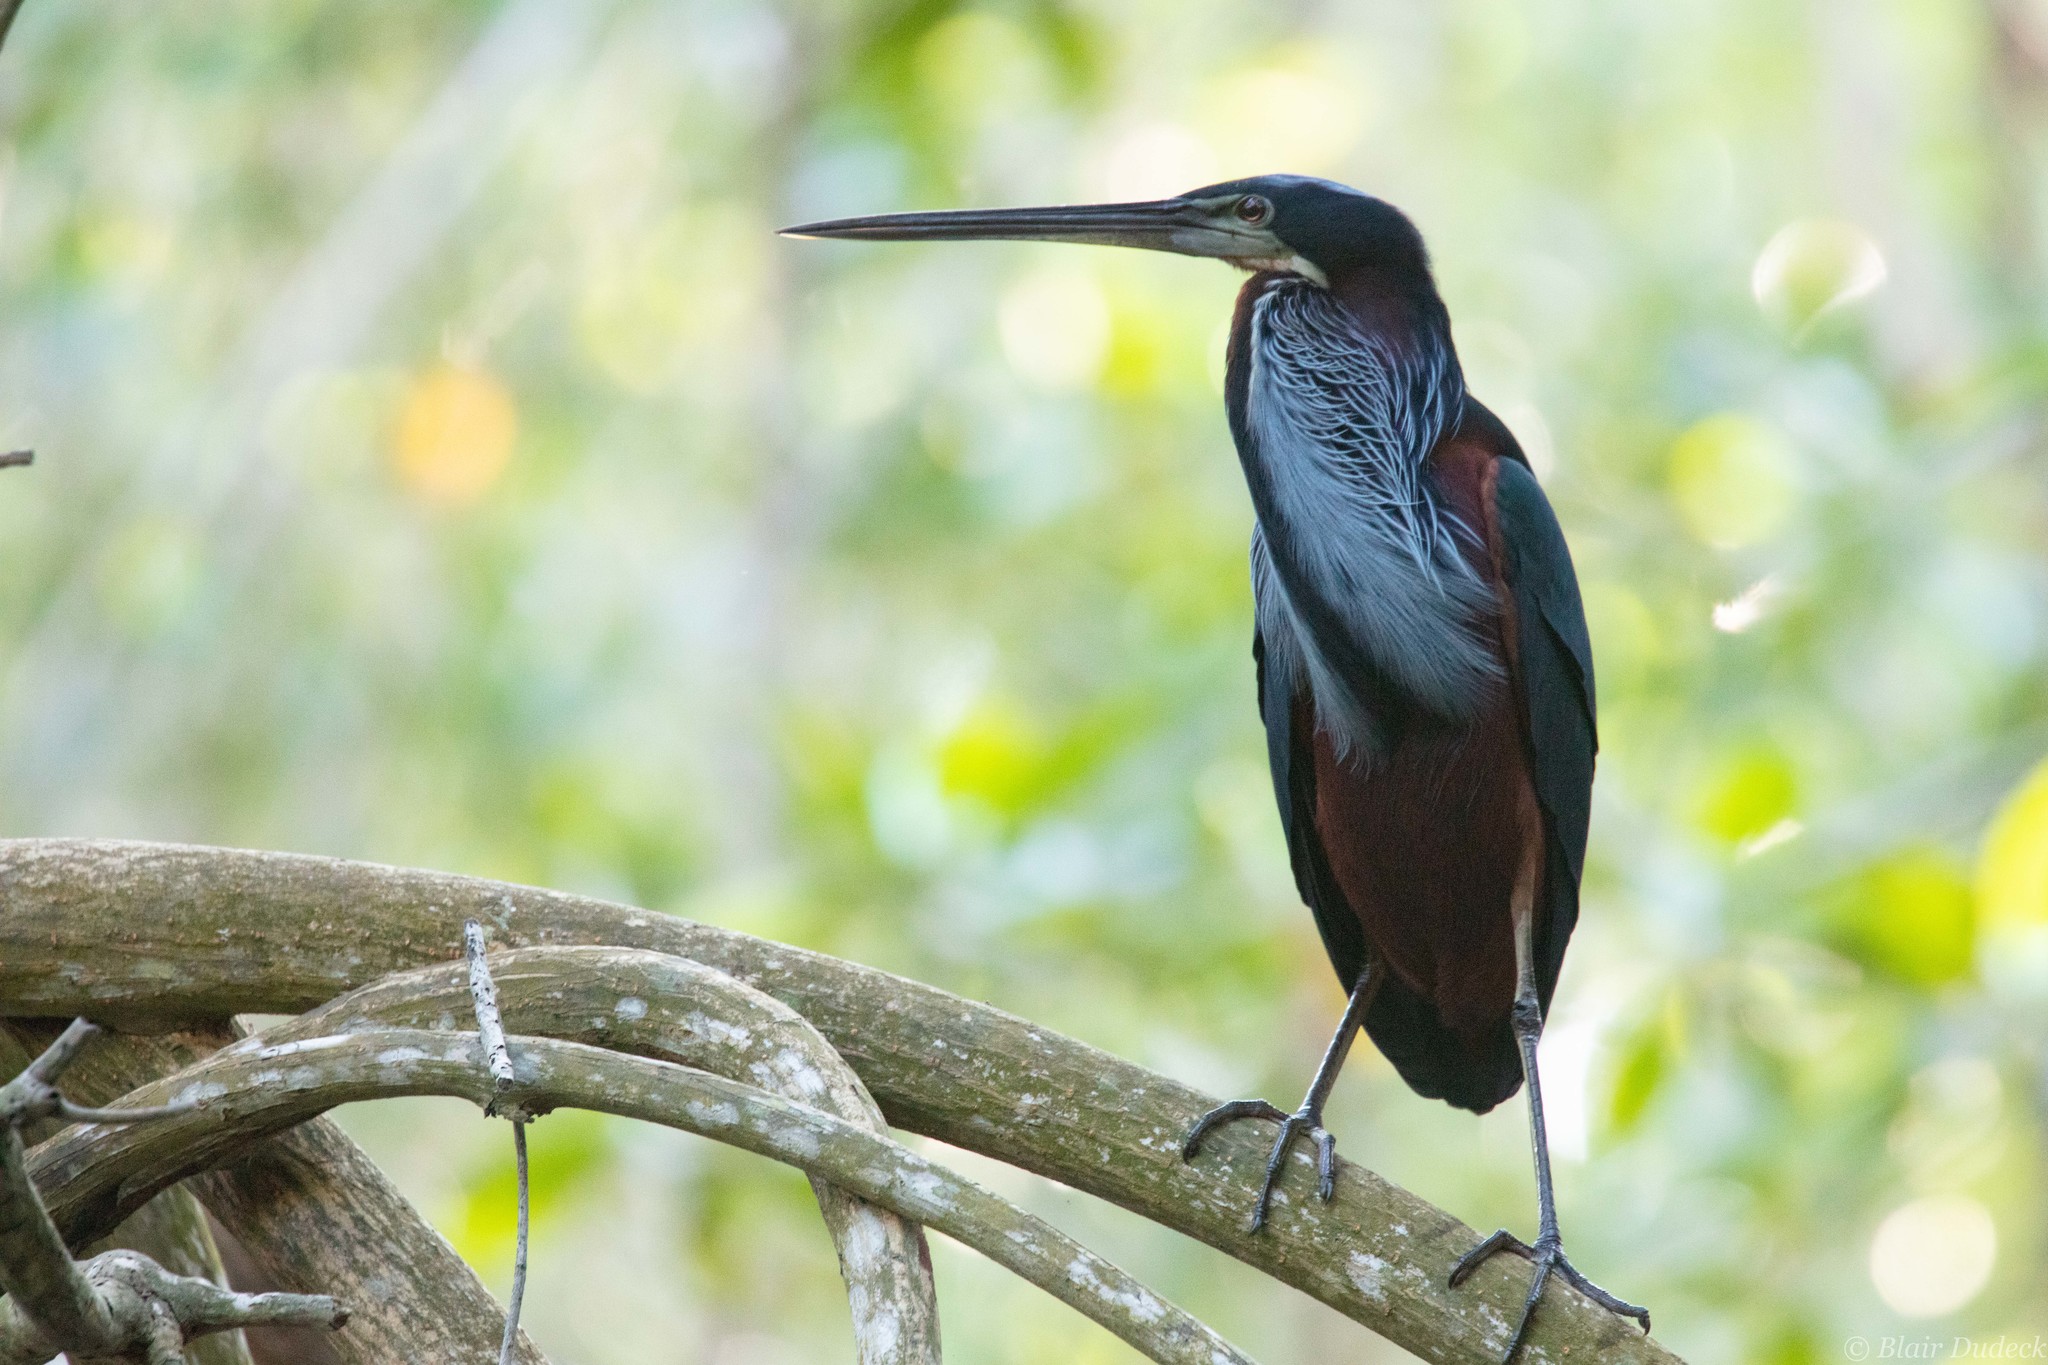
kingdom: Animalia
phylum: Chordata
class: Aves
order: Pelecaniformes
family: Ardeidae
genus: Agamia
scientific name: Agamia agami
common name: Agami heron
